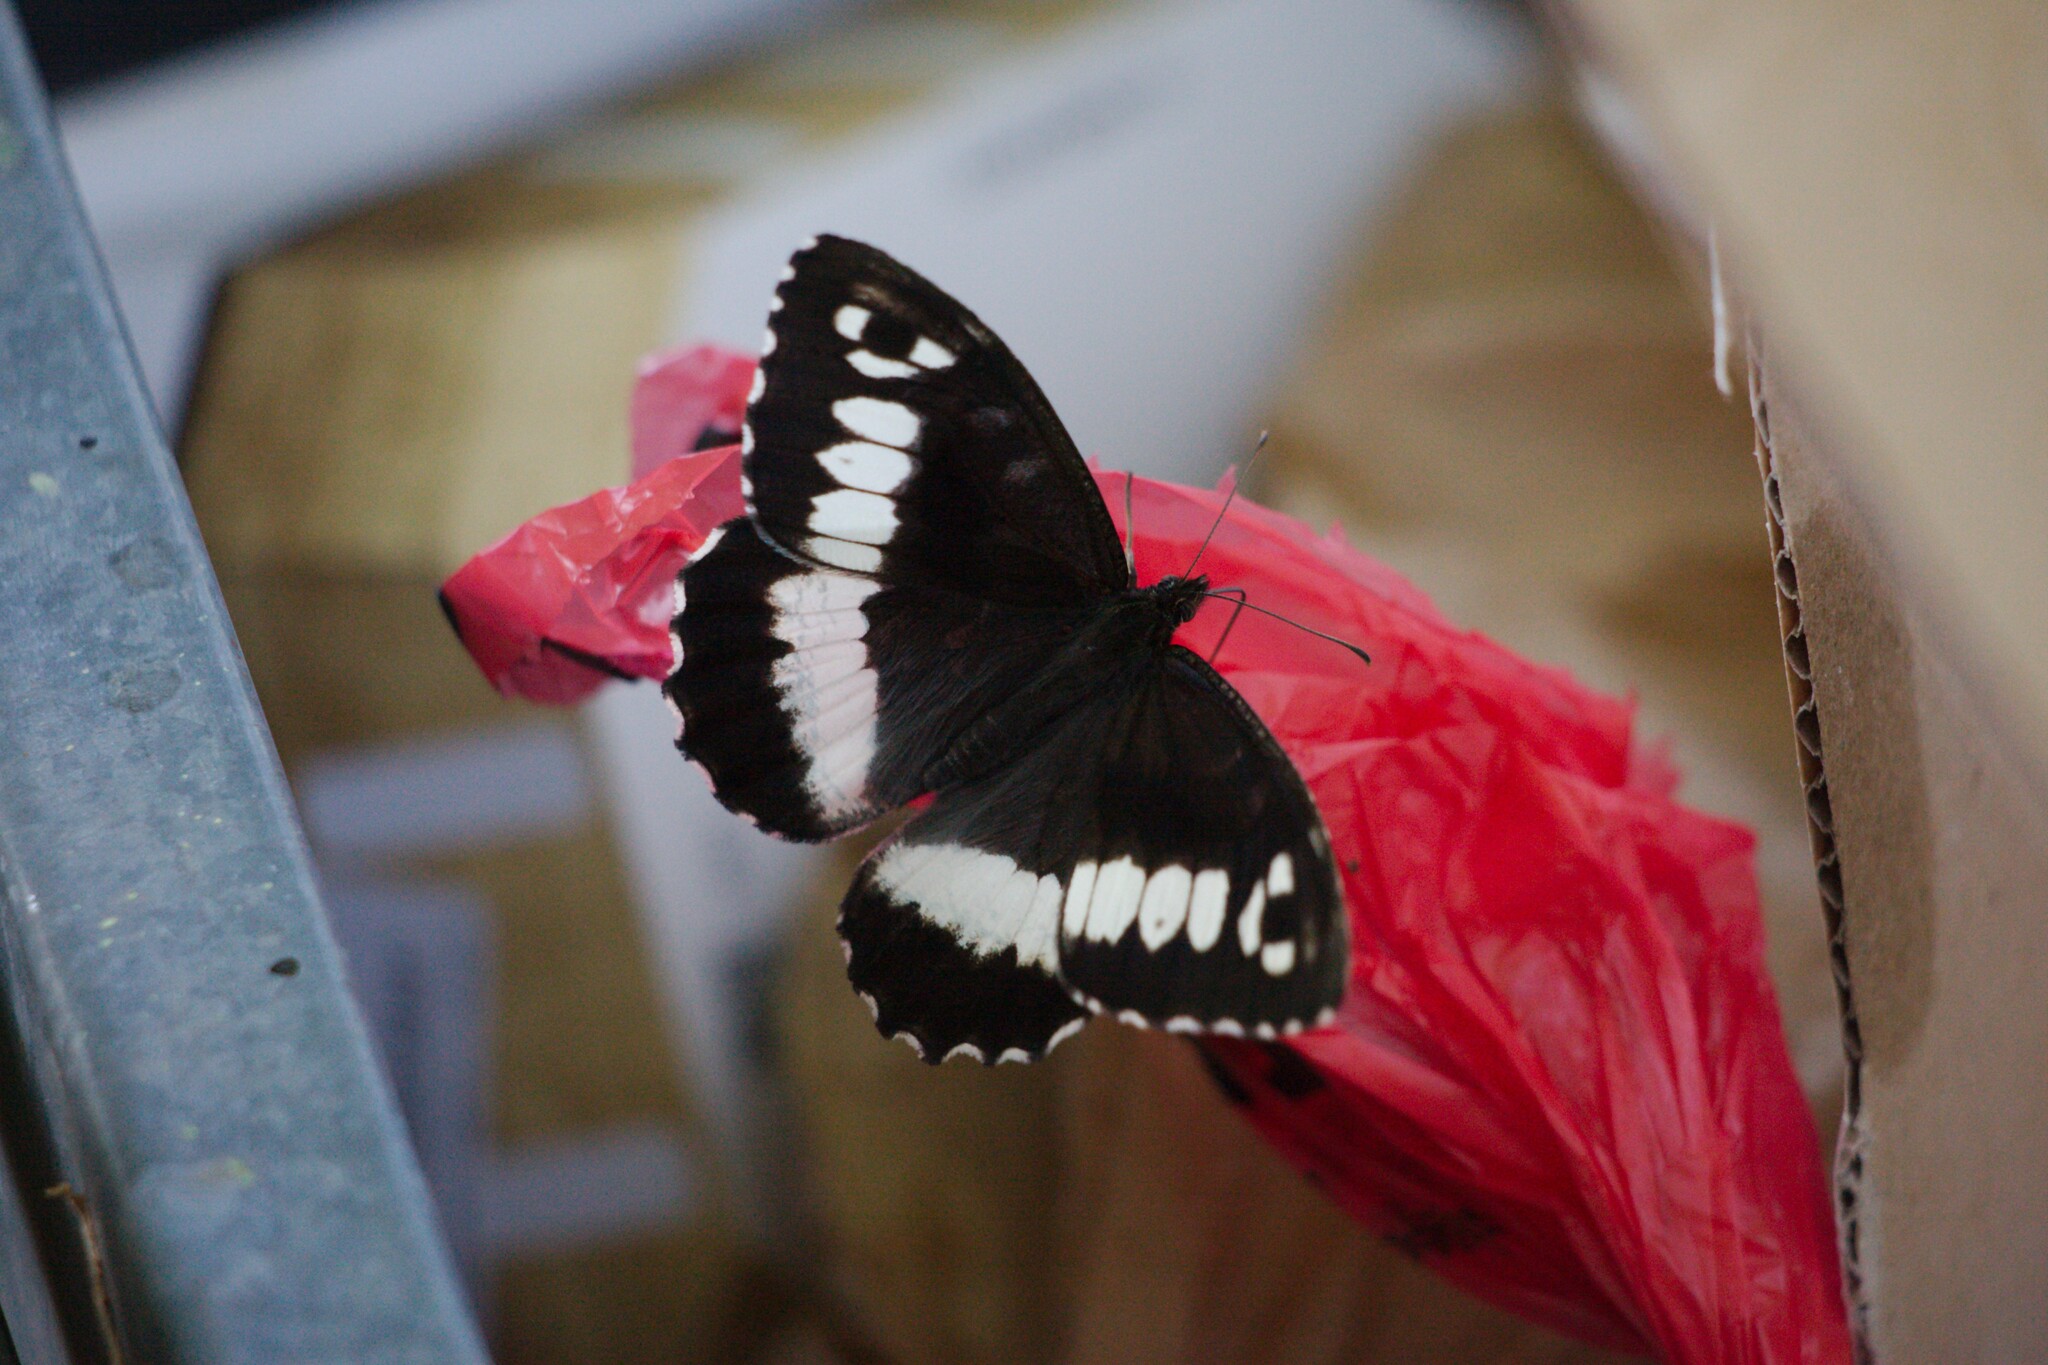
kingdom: Animalia
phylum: Arthropoda
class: Insecta
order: Lepidoptera
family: Lycaenidae
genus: Loweia
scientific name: Loweia tityrus
